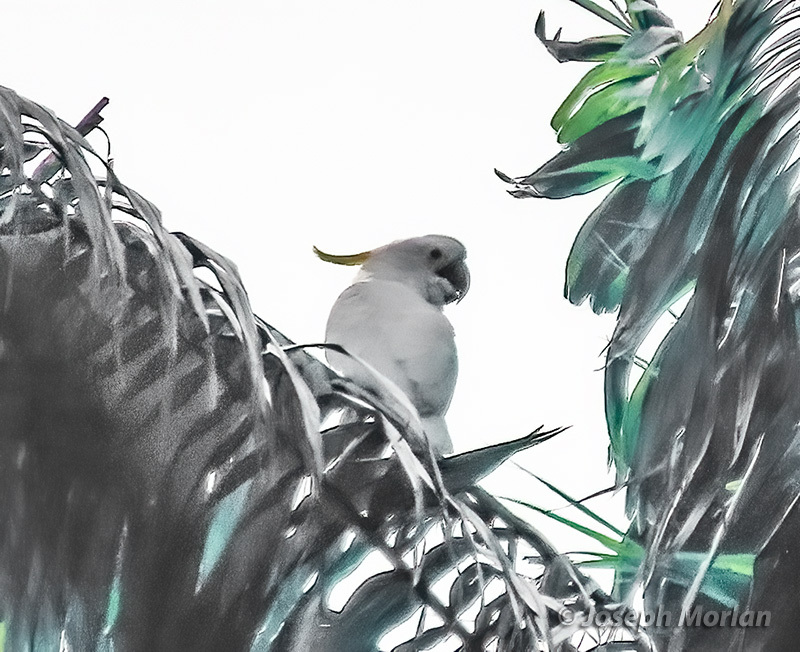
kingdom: Animalia
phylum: Chordata
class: Aves
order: Psittaciformes
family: Psittacidae
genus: Cacatua
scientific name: Cacatua galerita
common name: Sulphur-crested cockatoo
